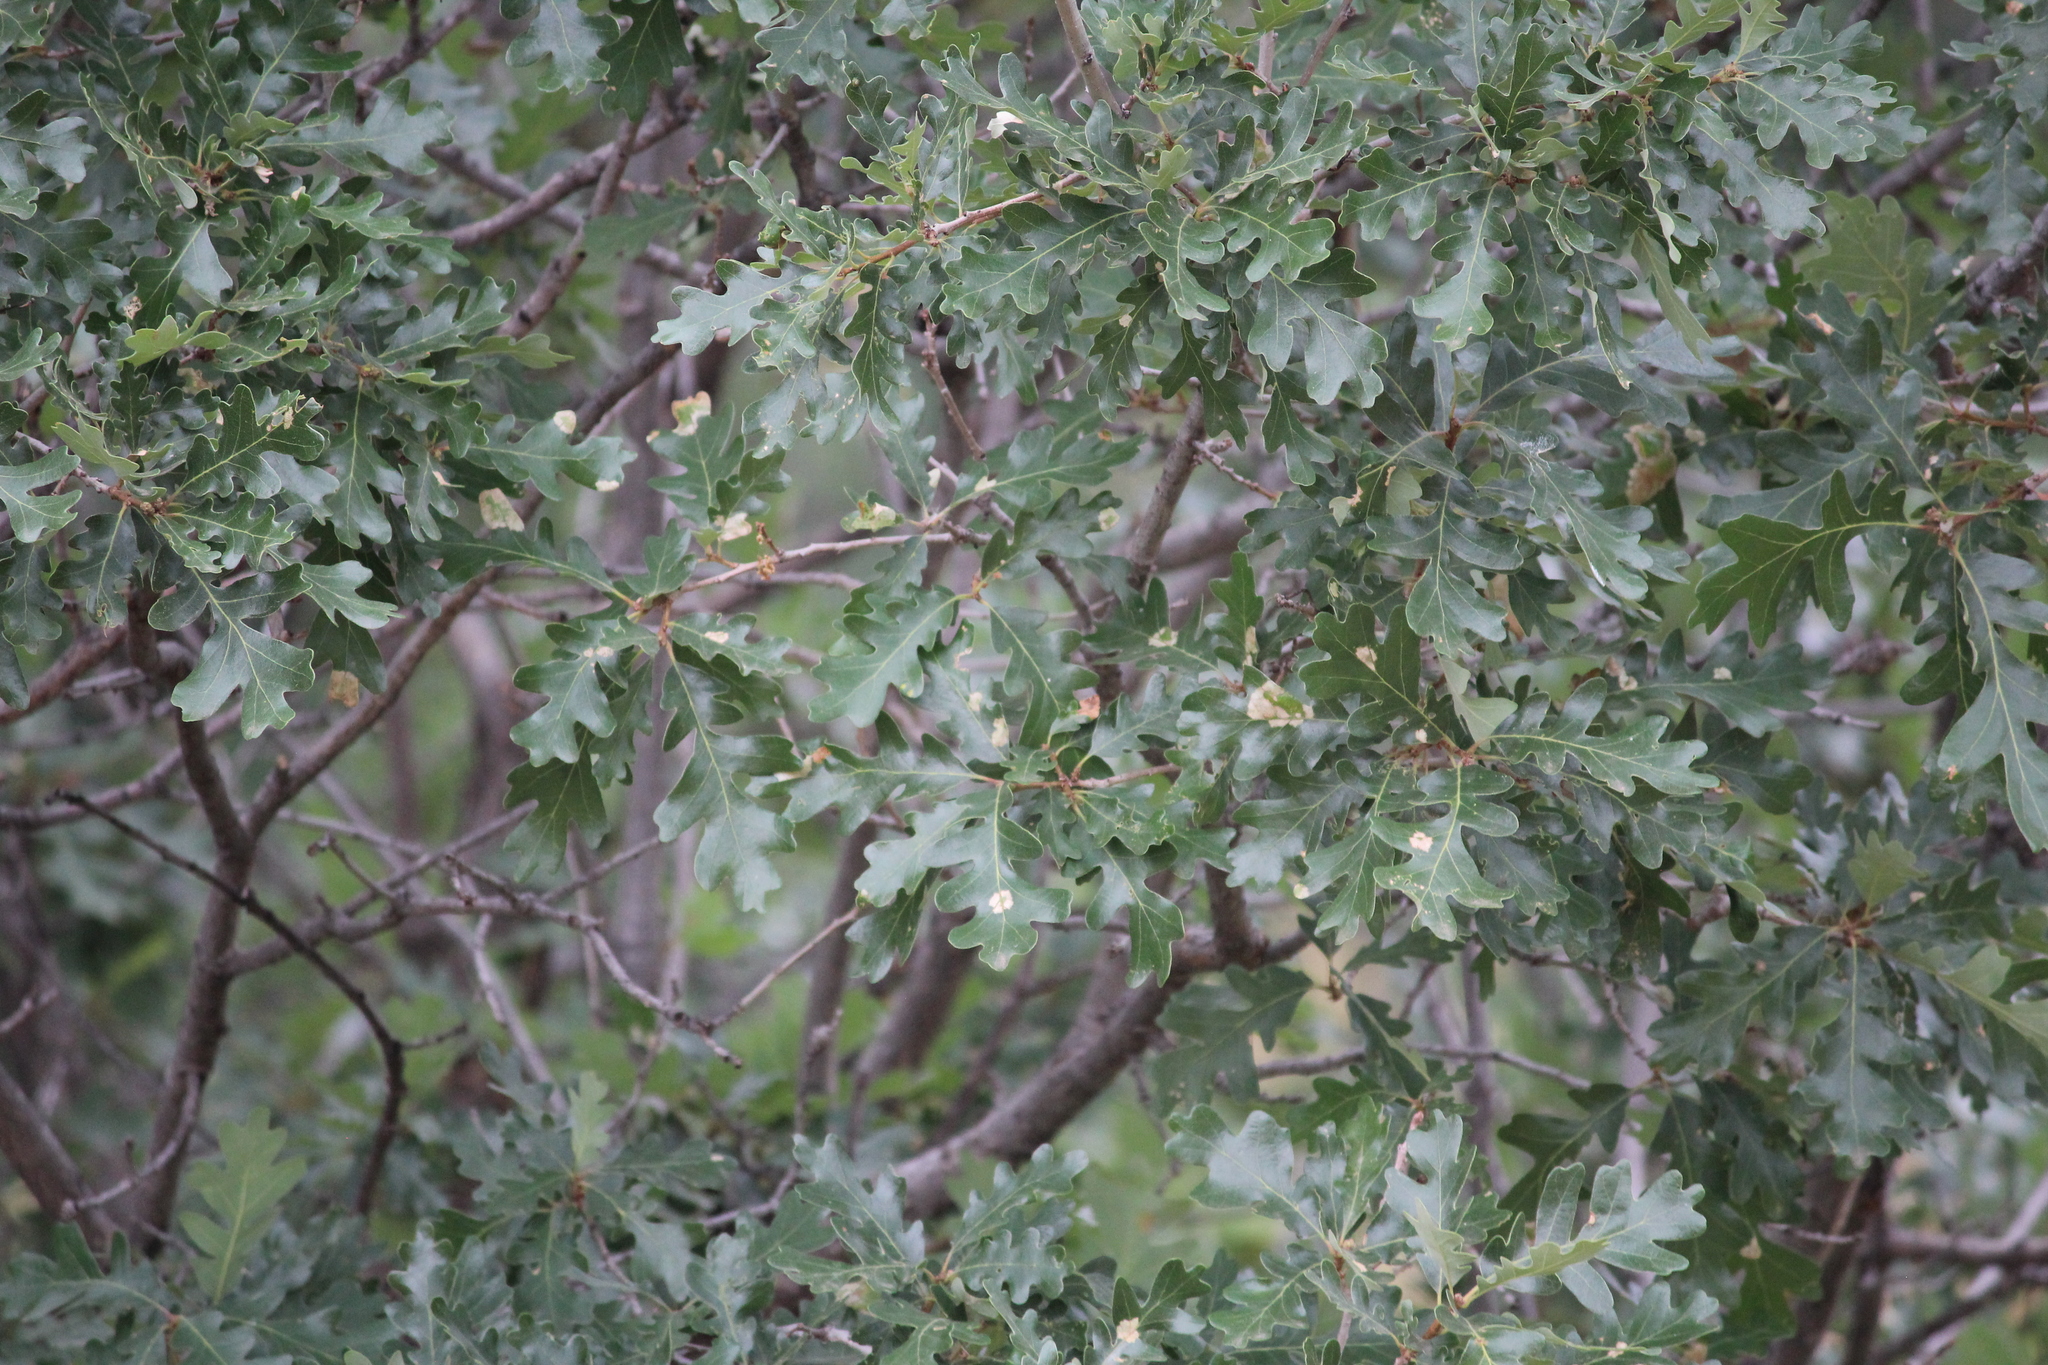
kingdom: Plantae
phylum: Tracheophyta
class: Magnoliopsida
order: Fagales
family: Fagaceae
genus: Quercus
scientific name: Quercus gambelii
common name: Gambel oak
